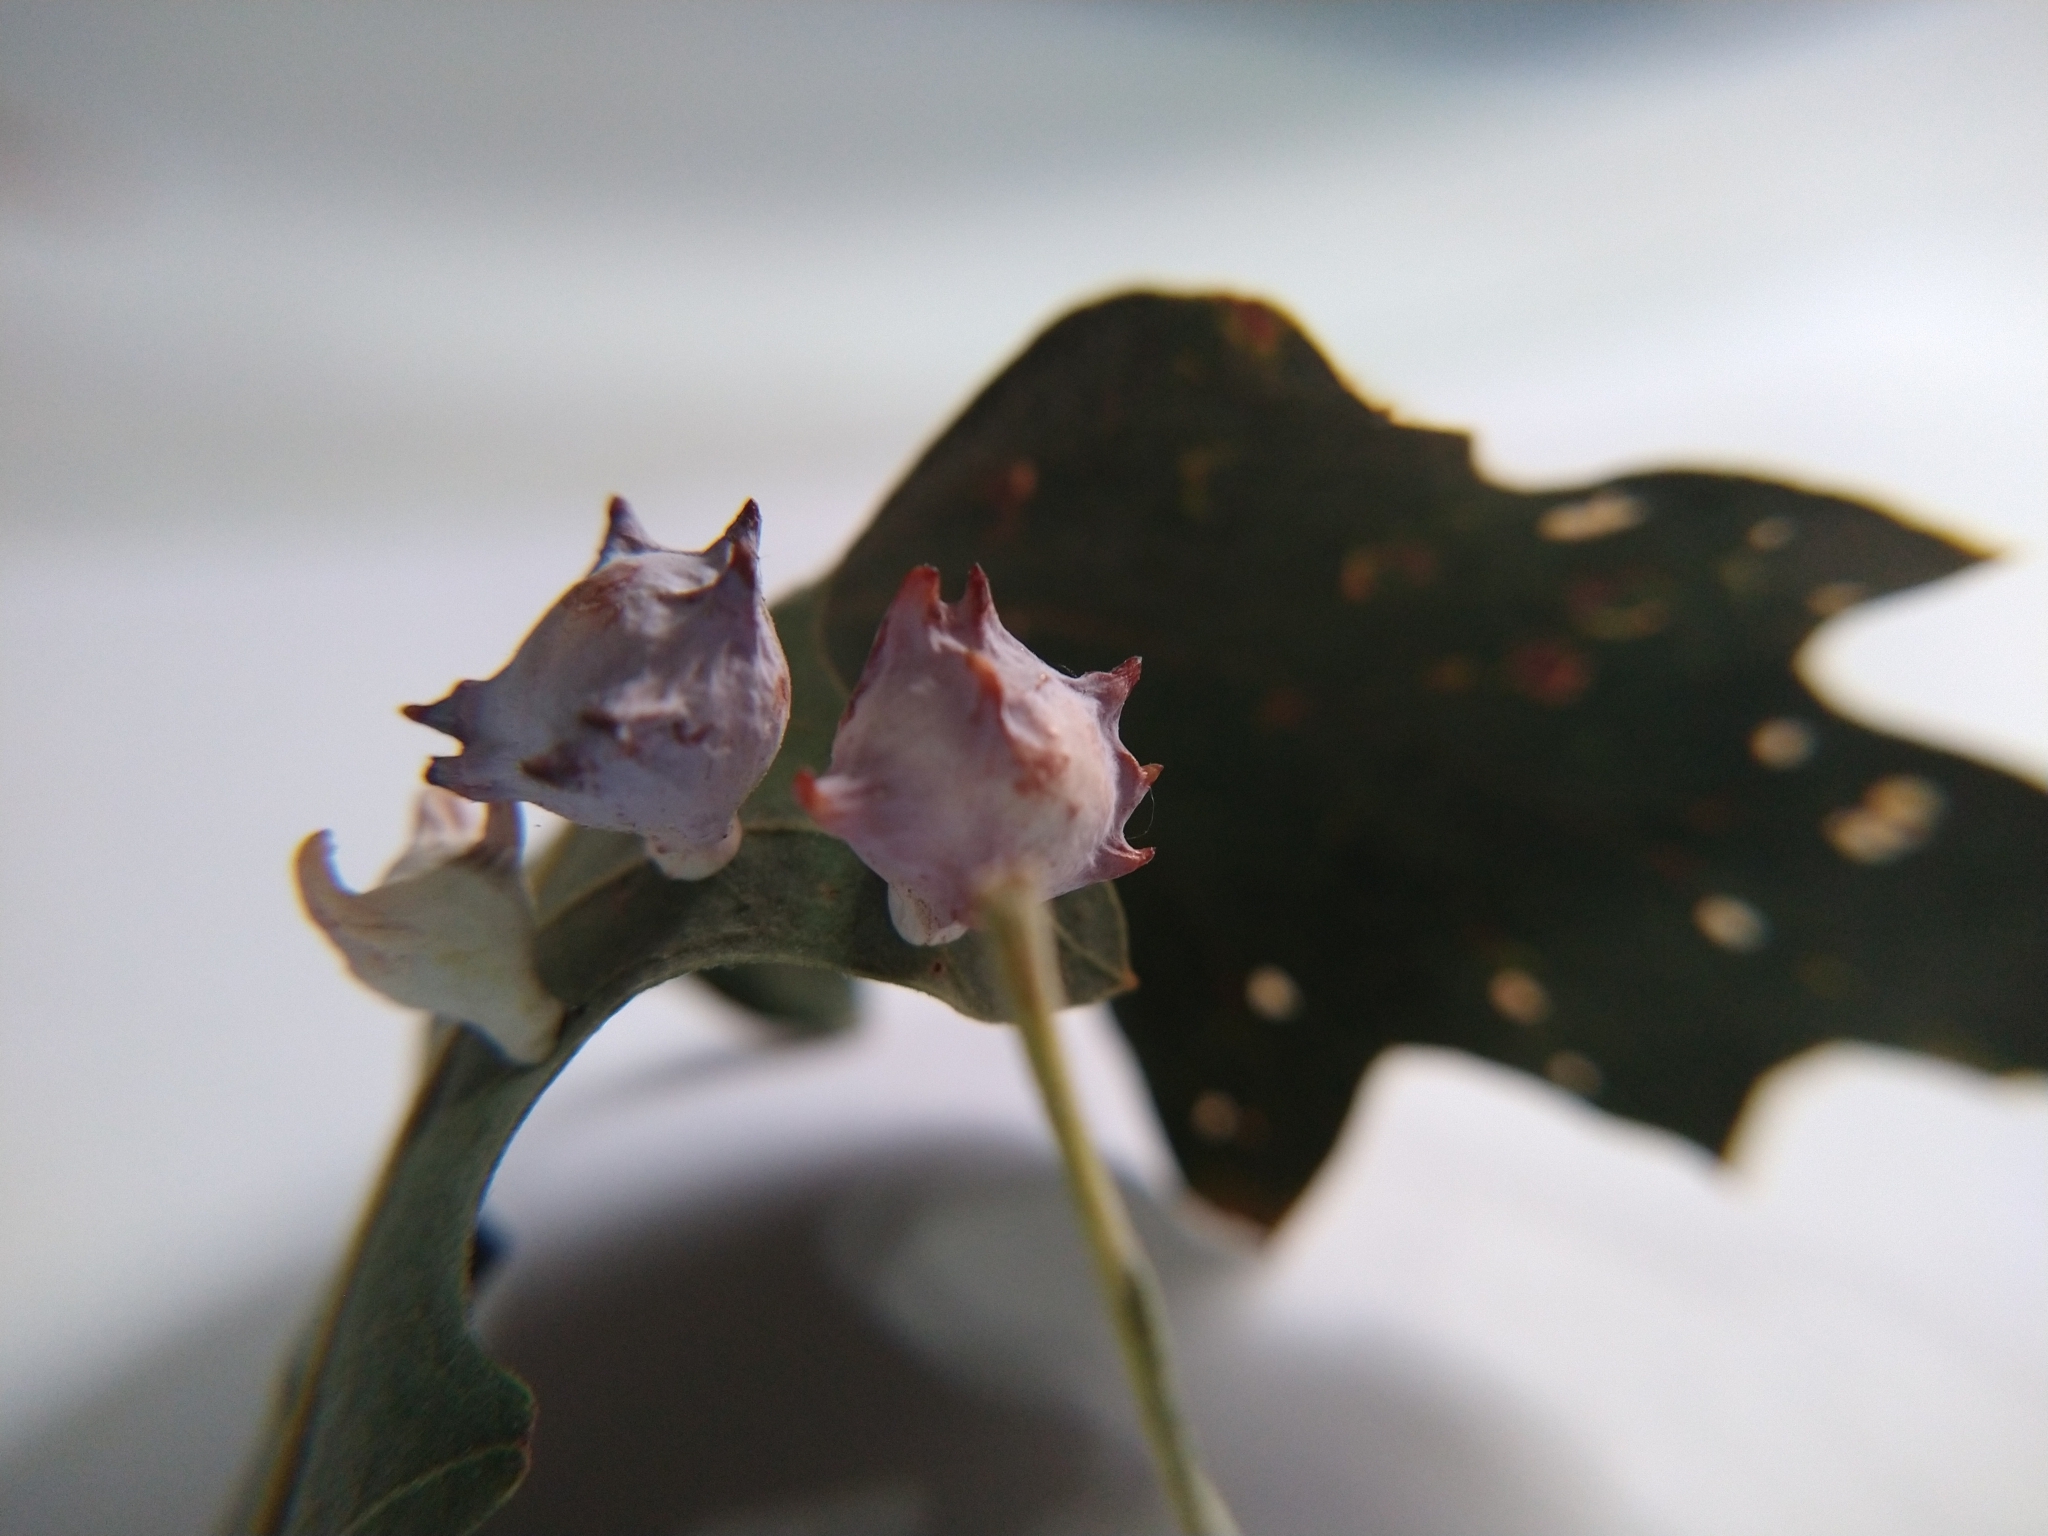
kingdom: Animalia
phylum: Arthropoda
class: Insecta
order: Hymenoptera
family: Cynipidae
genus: Cynips
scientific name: Cynips douglasi
